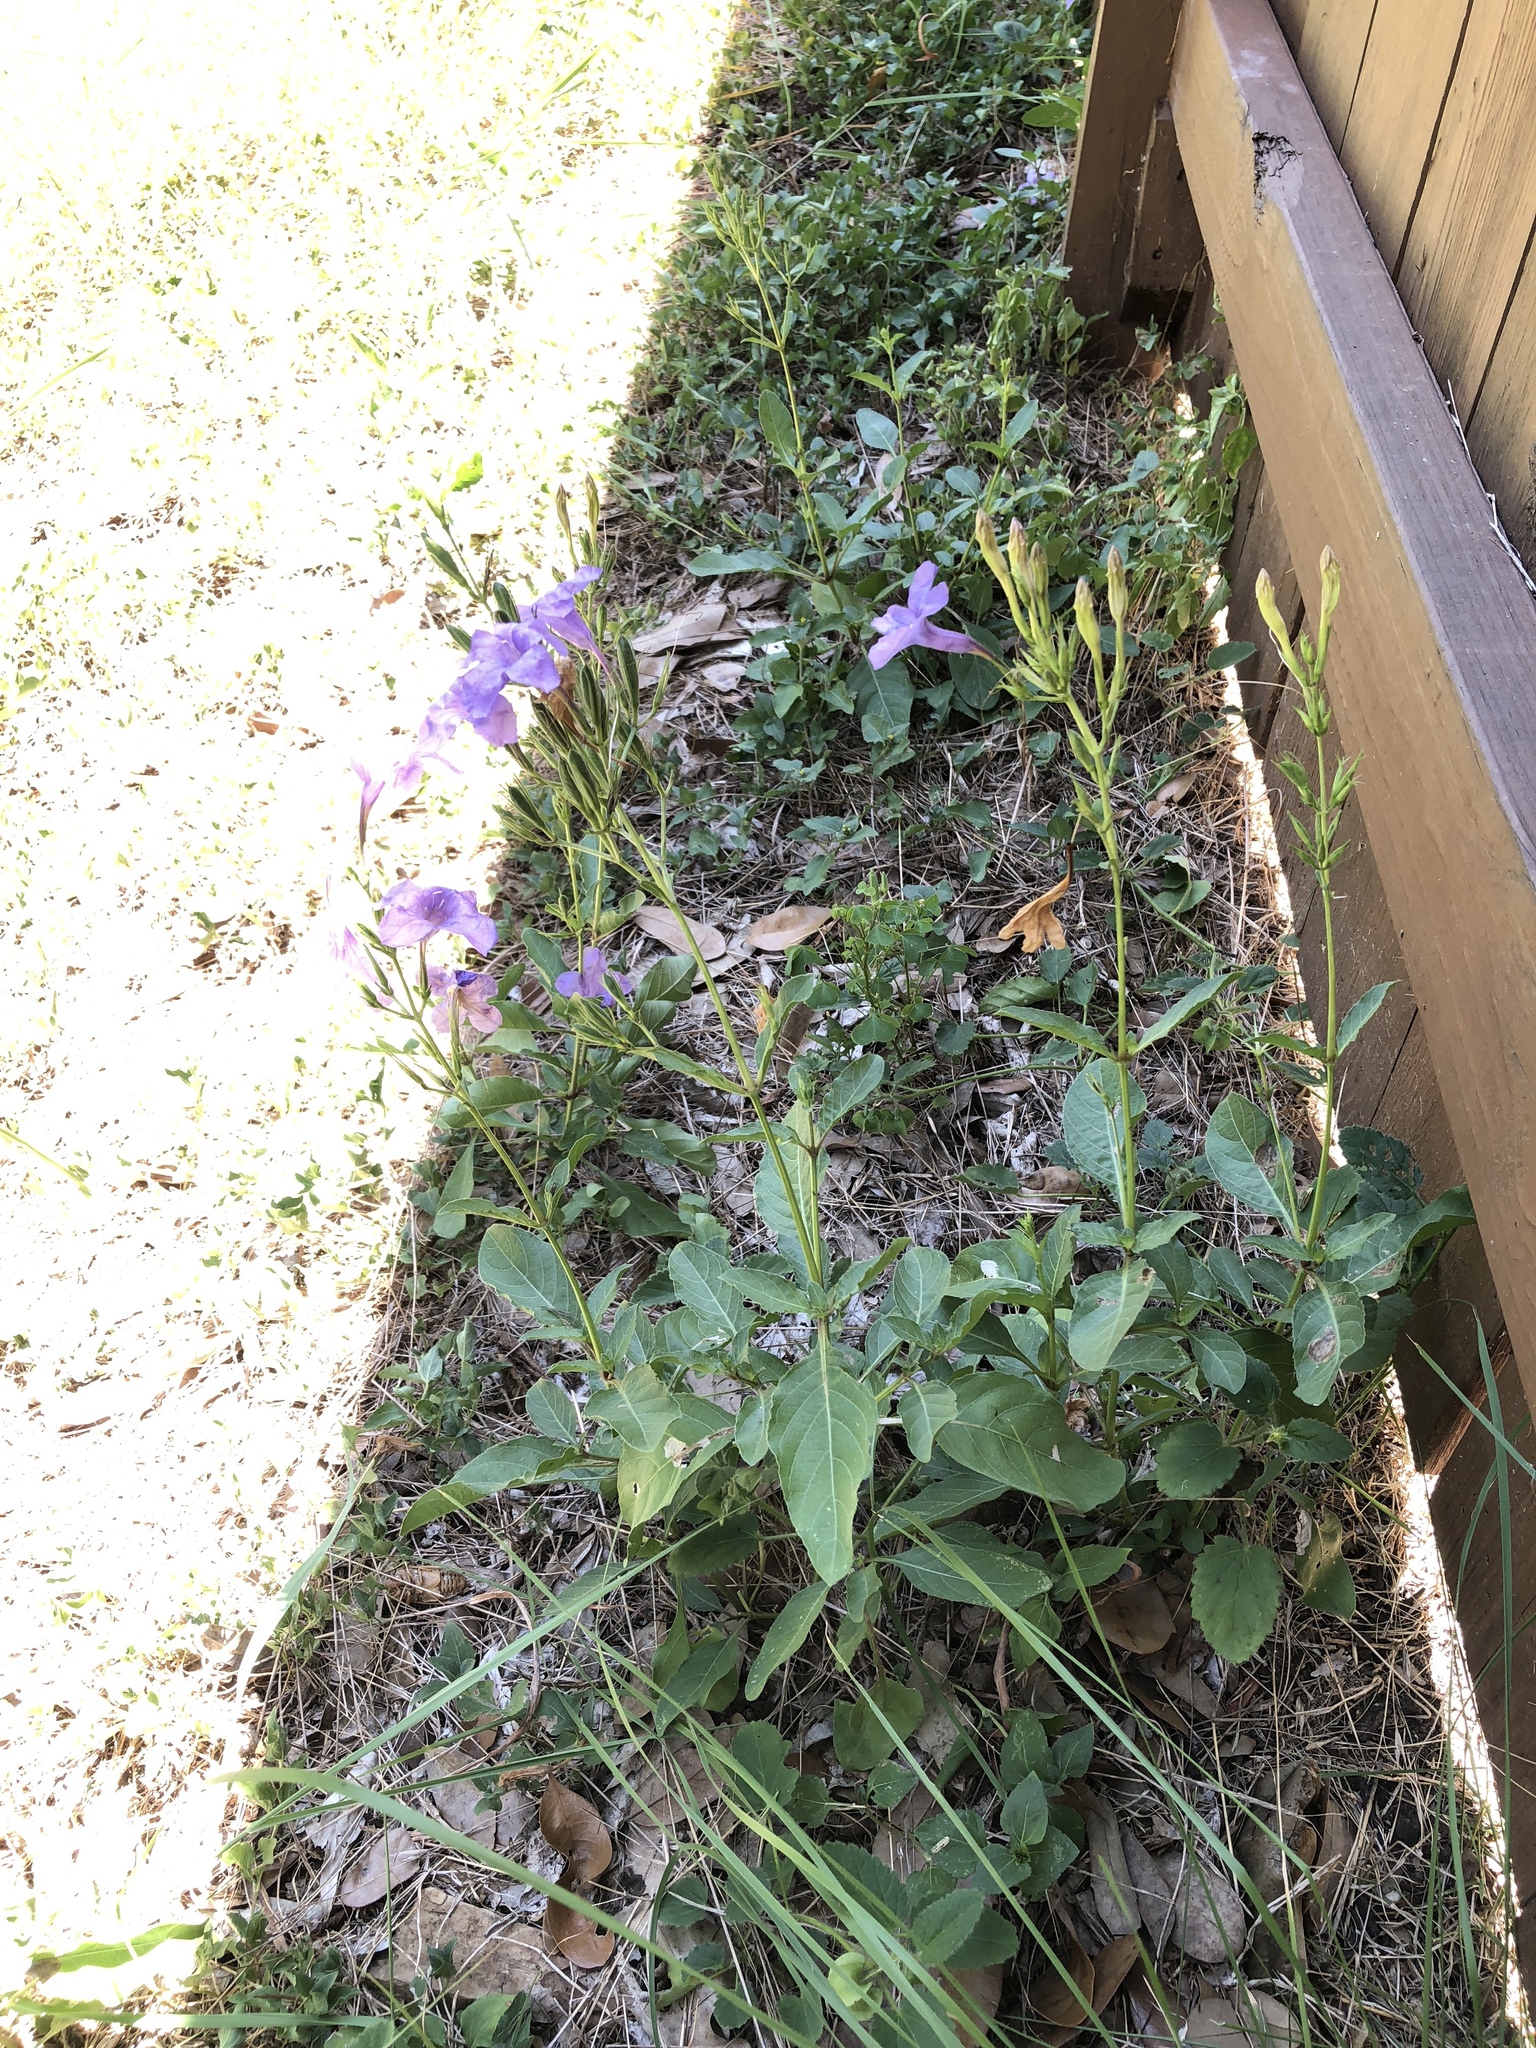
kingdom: Plantae
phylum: Tracheophyta
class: Magnoliopsida
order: Lamiales
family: Acanthaceae
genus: Ruellia
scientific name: Ruellia ciliatiflora
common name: Hairyflower wild petunia
